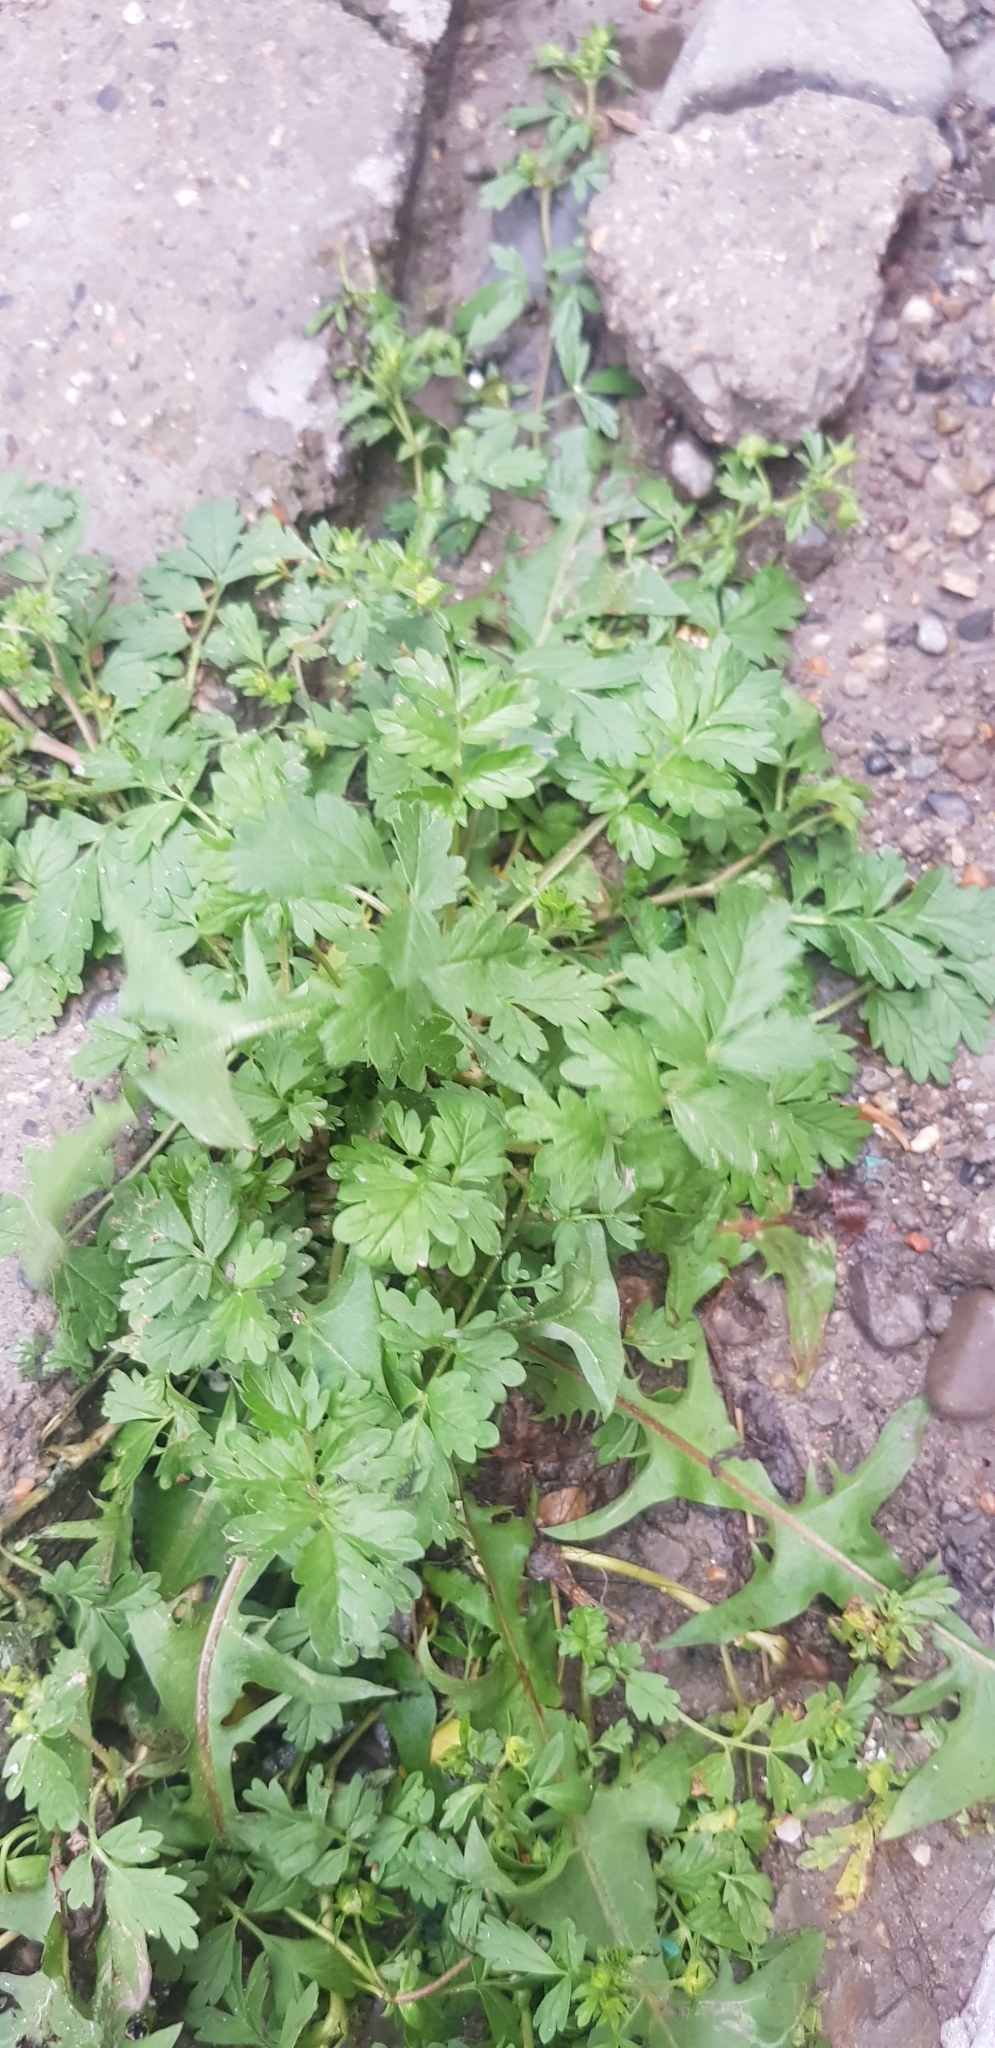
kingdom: Plantae
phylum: Tracheophyta
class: Magnoliopsida
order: Rosales
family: Rosaceae
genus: Potentilla
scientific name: Potentilla supina
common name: Prostrate cinquefoil
